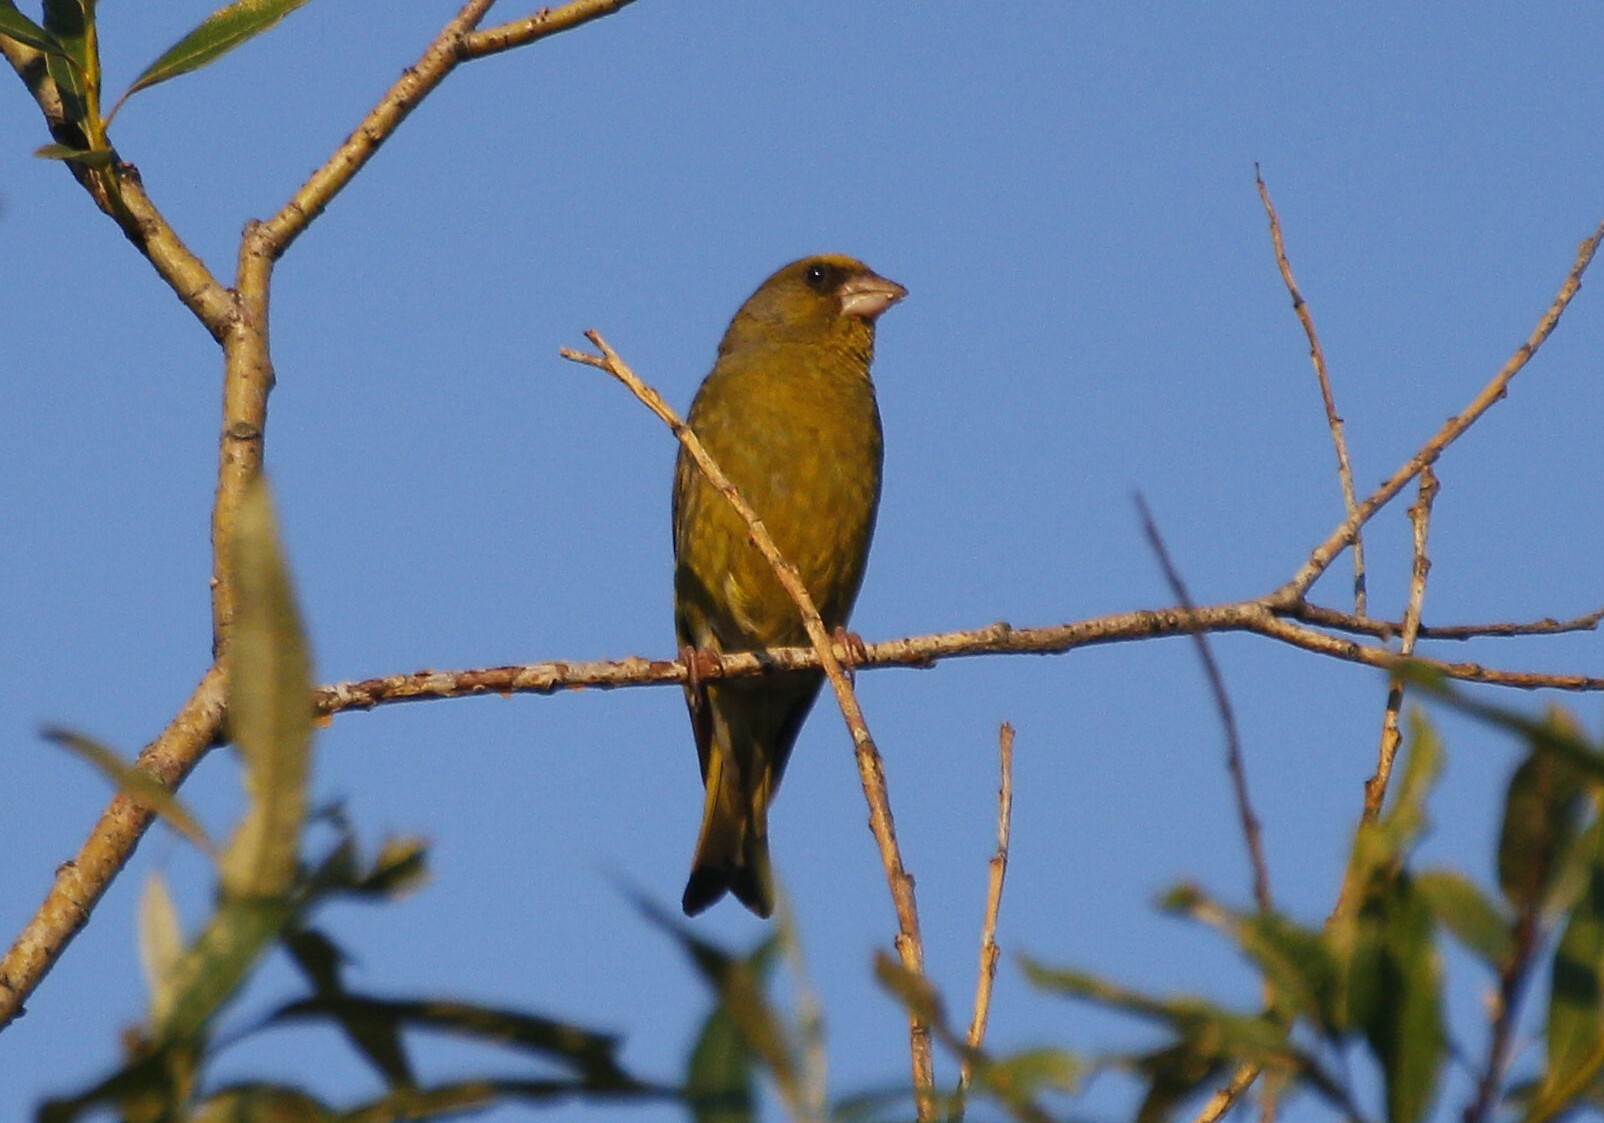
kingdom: Plantae
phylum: Tracheophyta
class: Liliopsida
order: Poales
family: Poaceae
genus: Chloris
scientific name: Chloris chloris
